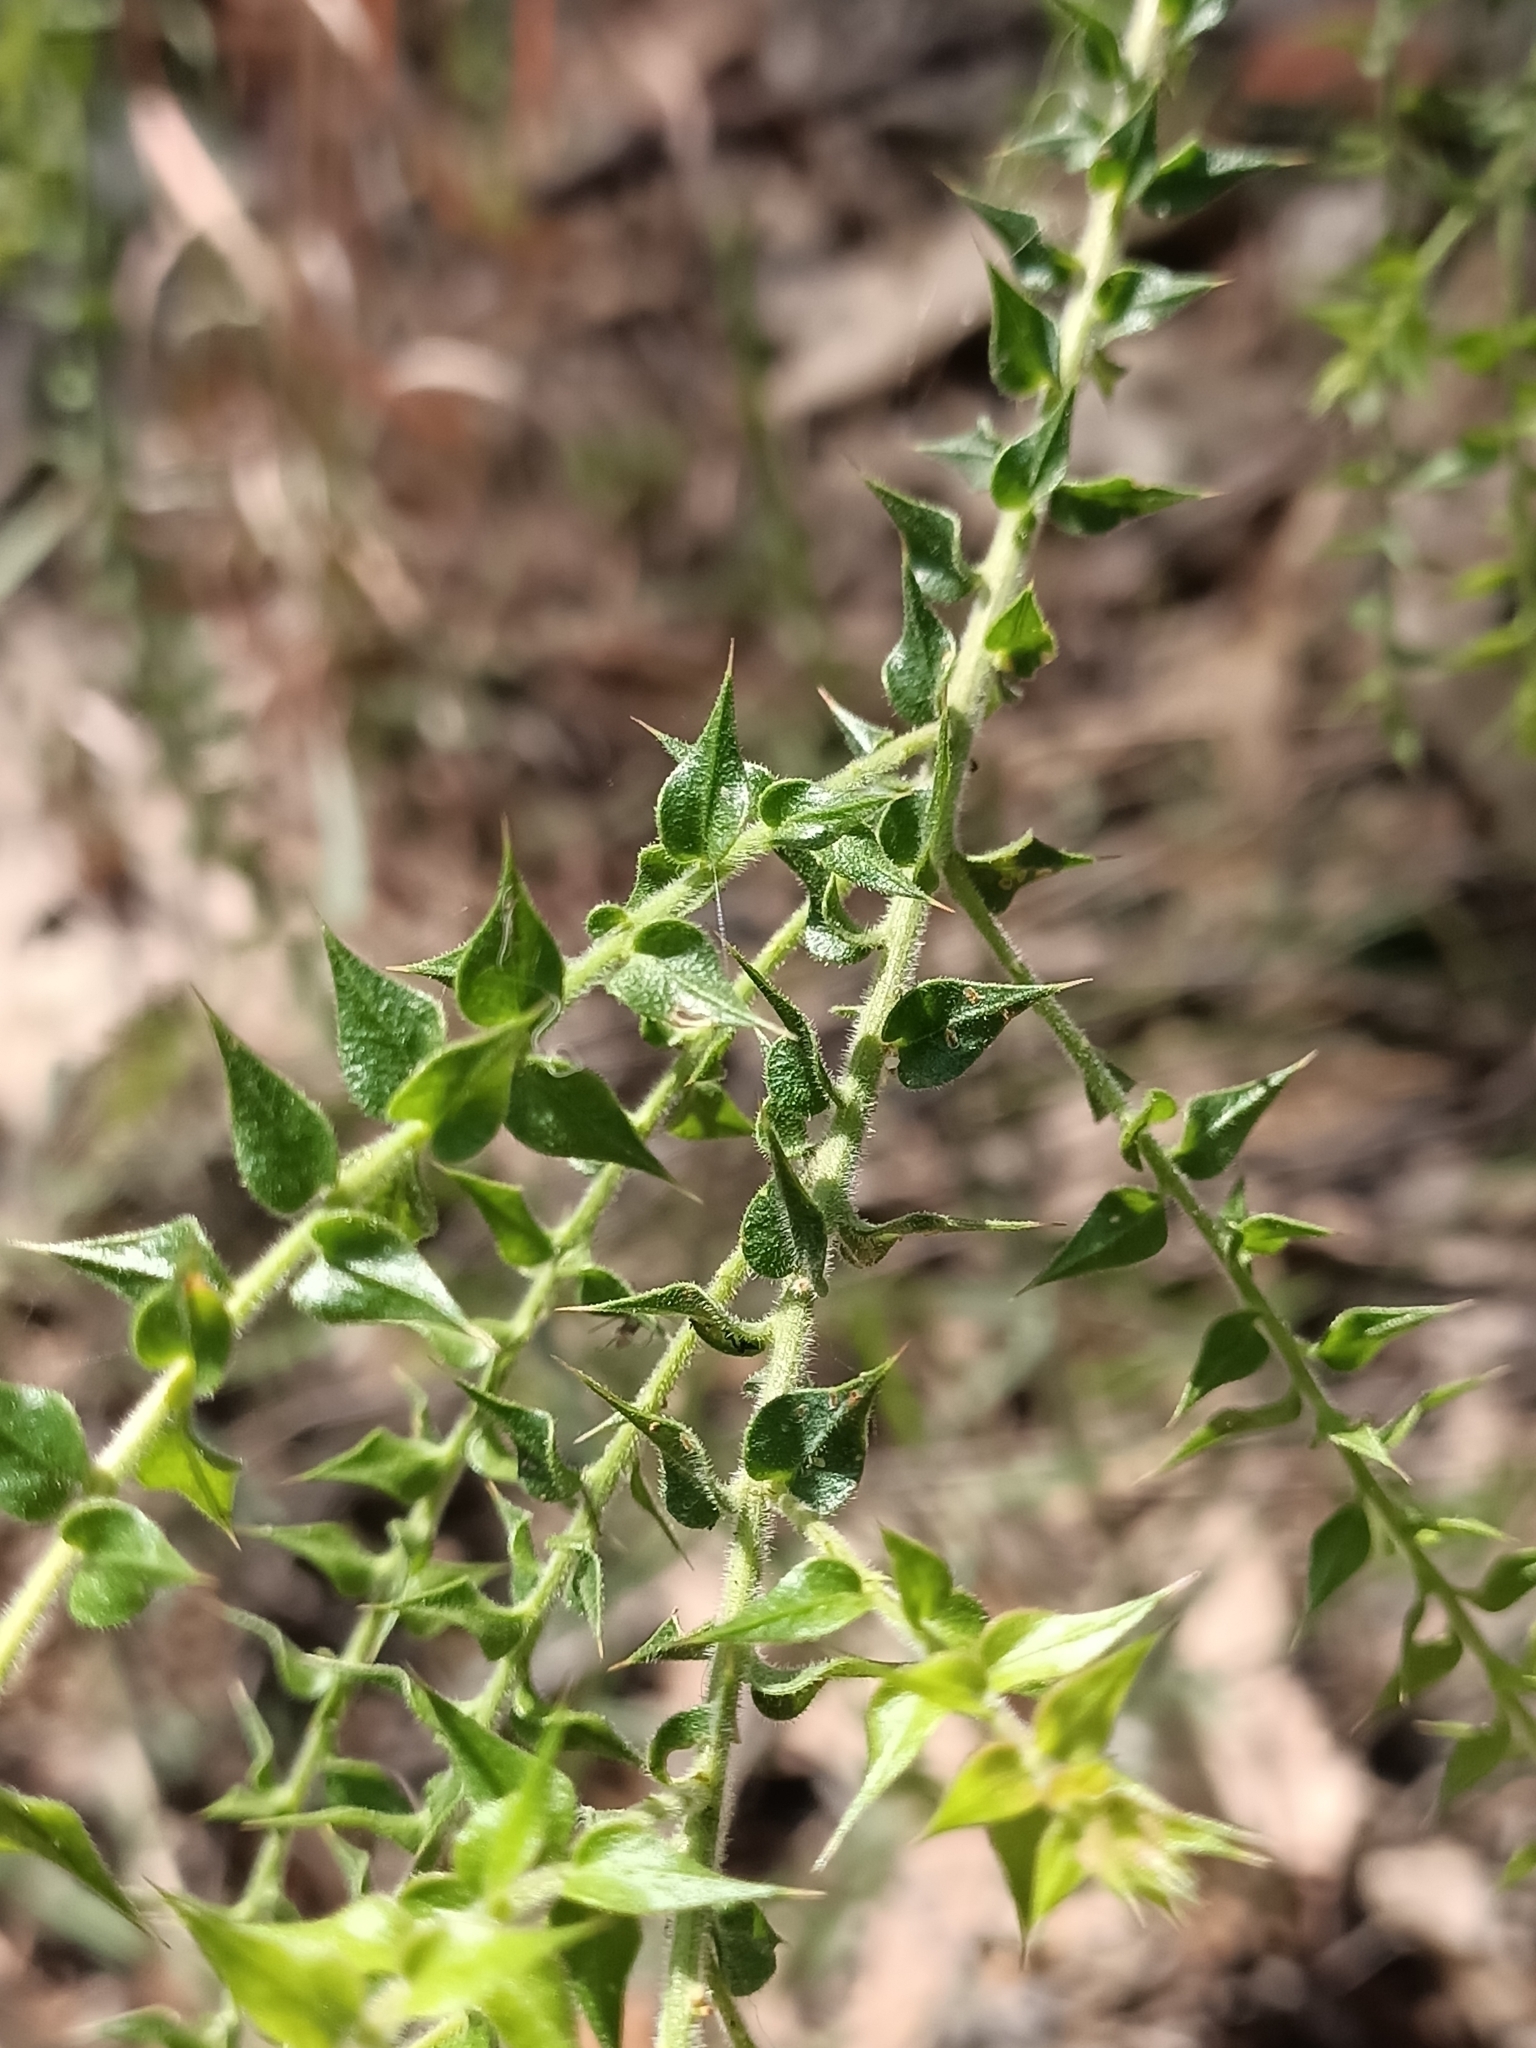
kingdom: Plantae
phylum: Tracheophyta
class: Magnoliopsida
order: Fabales
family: Fabaceae
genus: Daviesia
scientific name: Daviesia villifera
